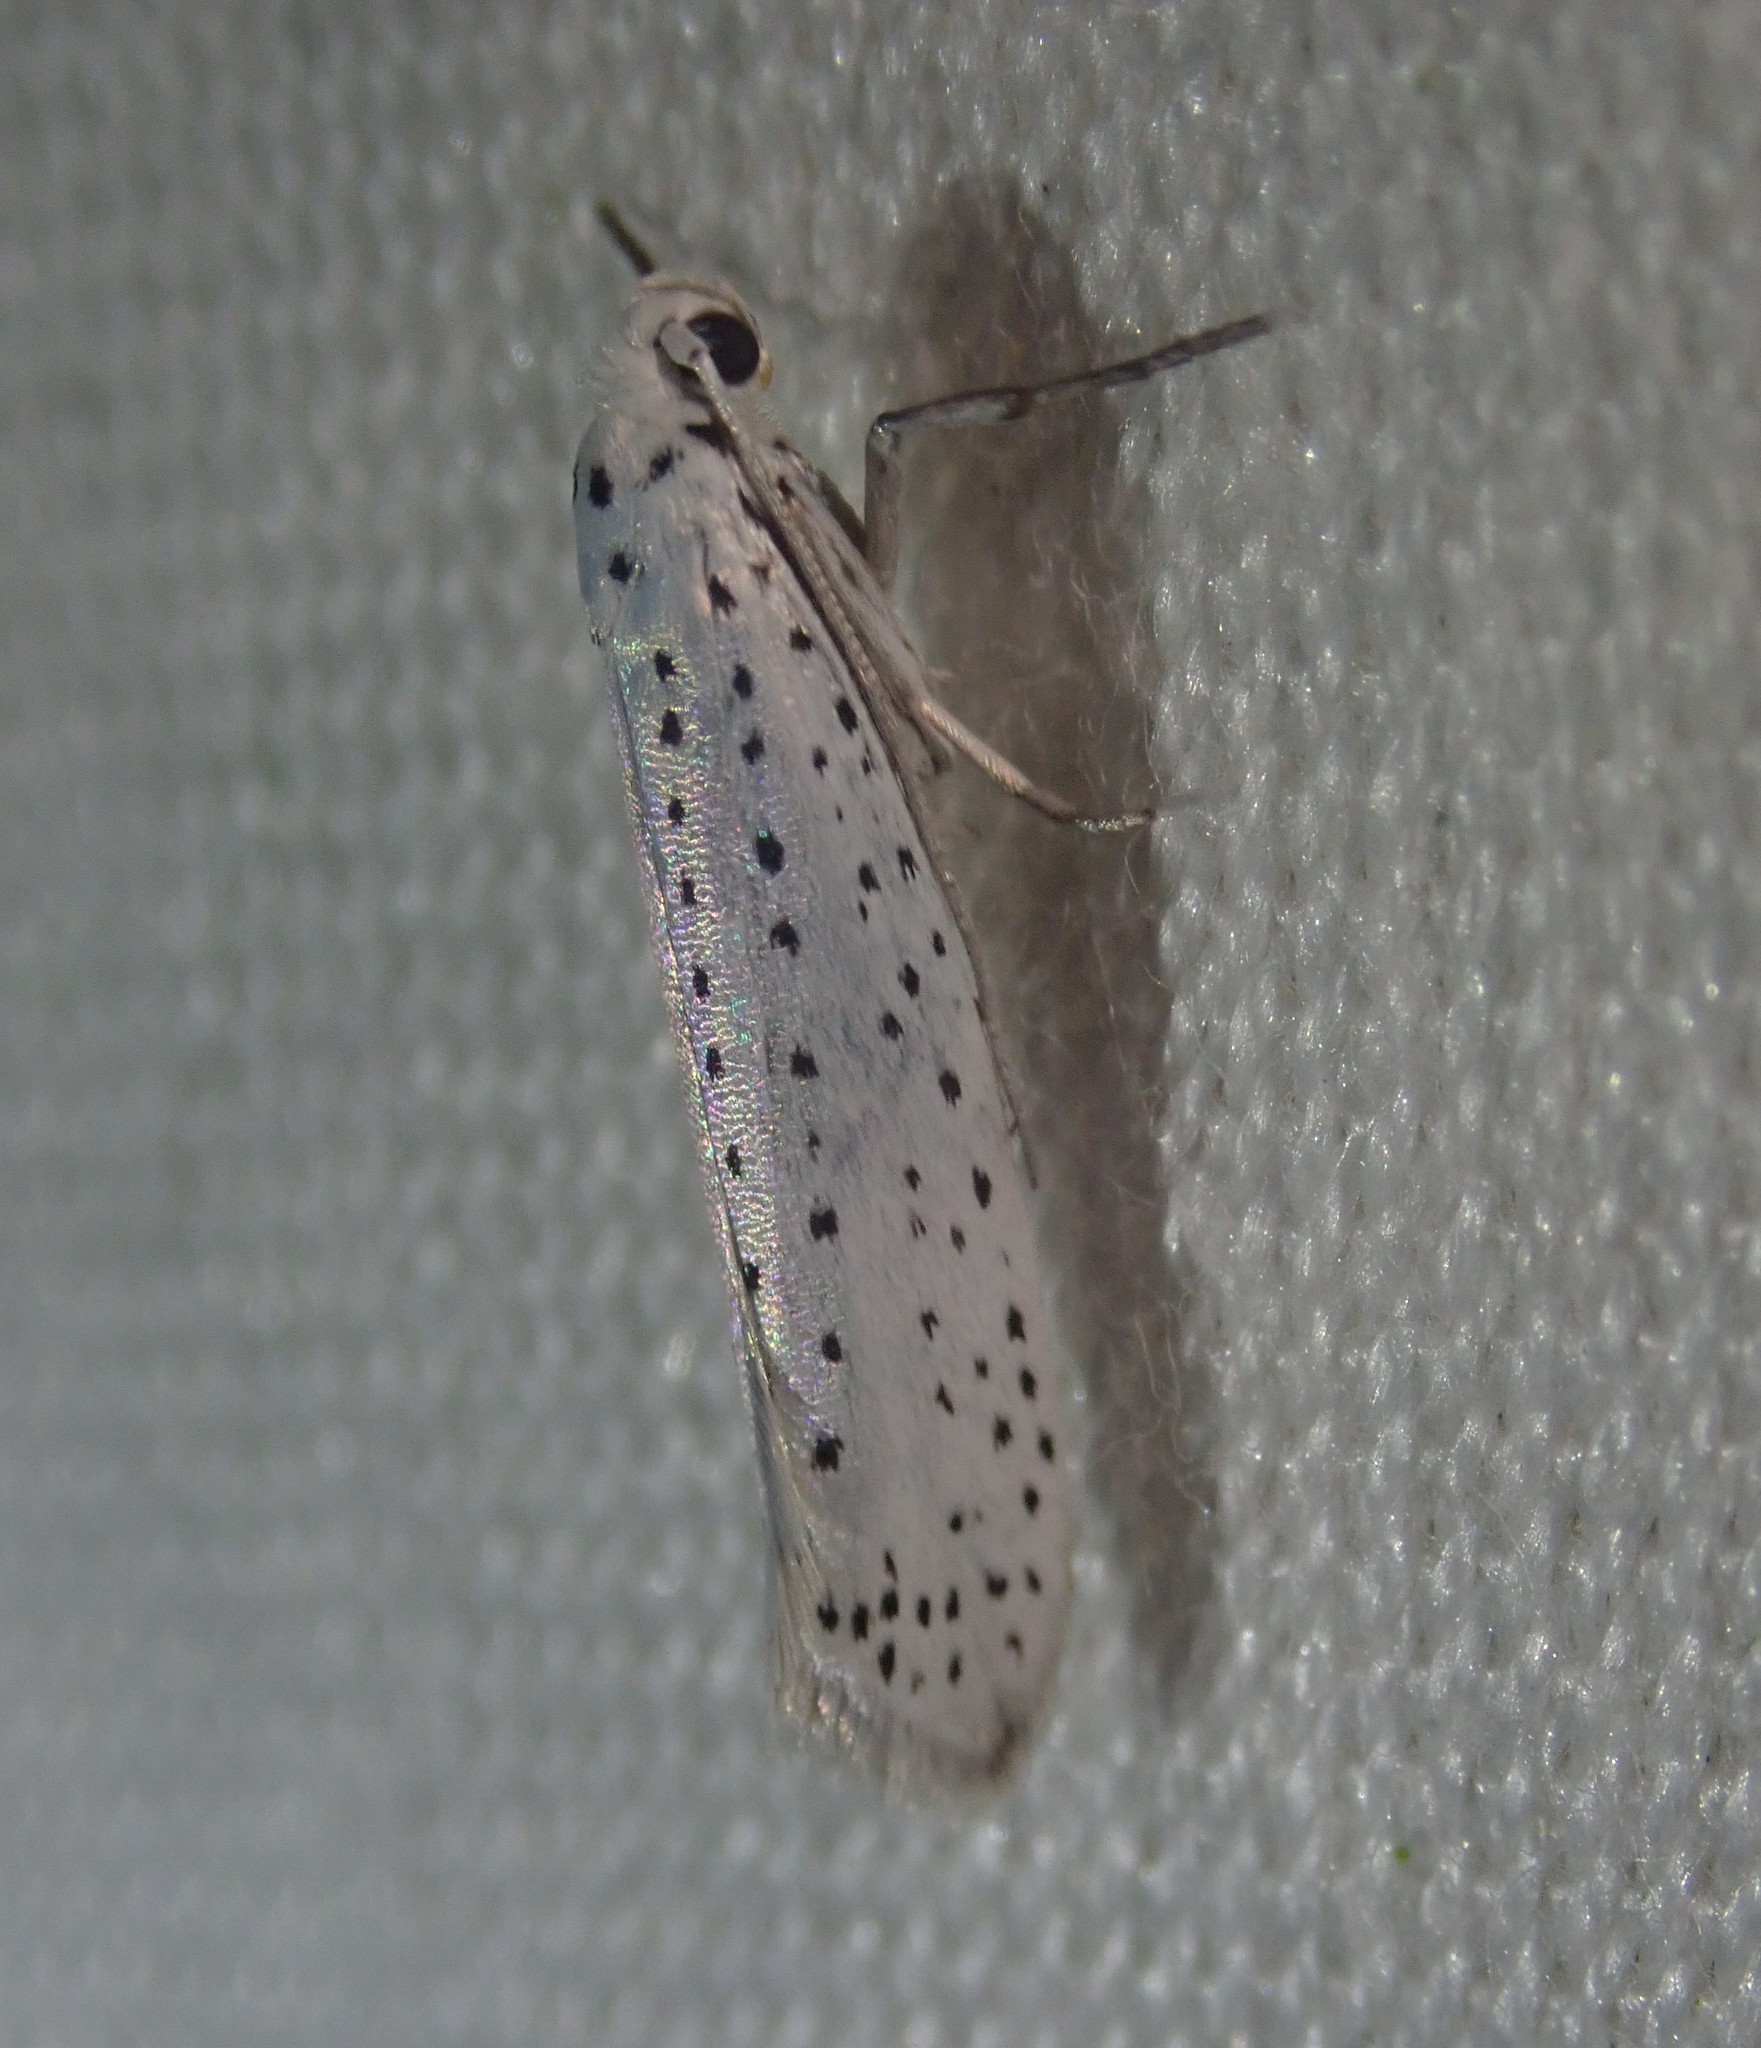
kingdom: Animalia
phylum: Arthropoda
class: Insecta
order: Lepidoptera
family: Yponomeutidae
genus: Yponomeuta
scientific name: Yponomeuta evonymella
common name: Bird-cherry ermine
